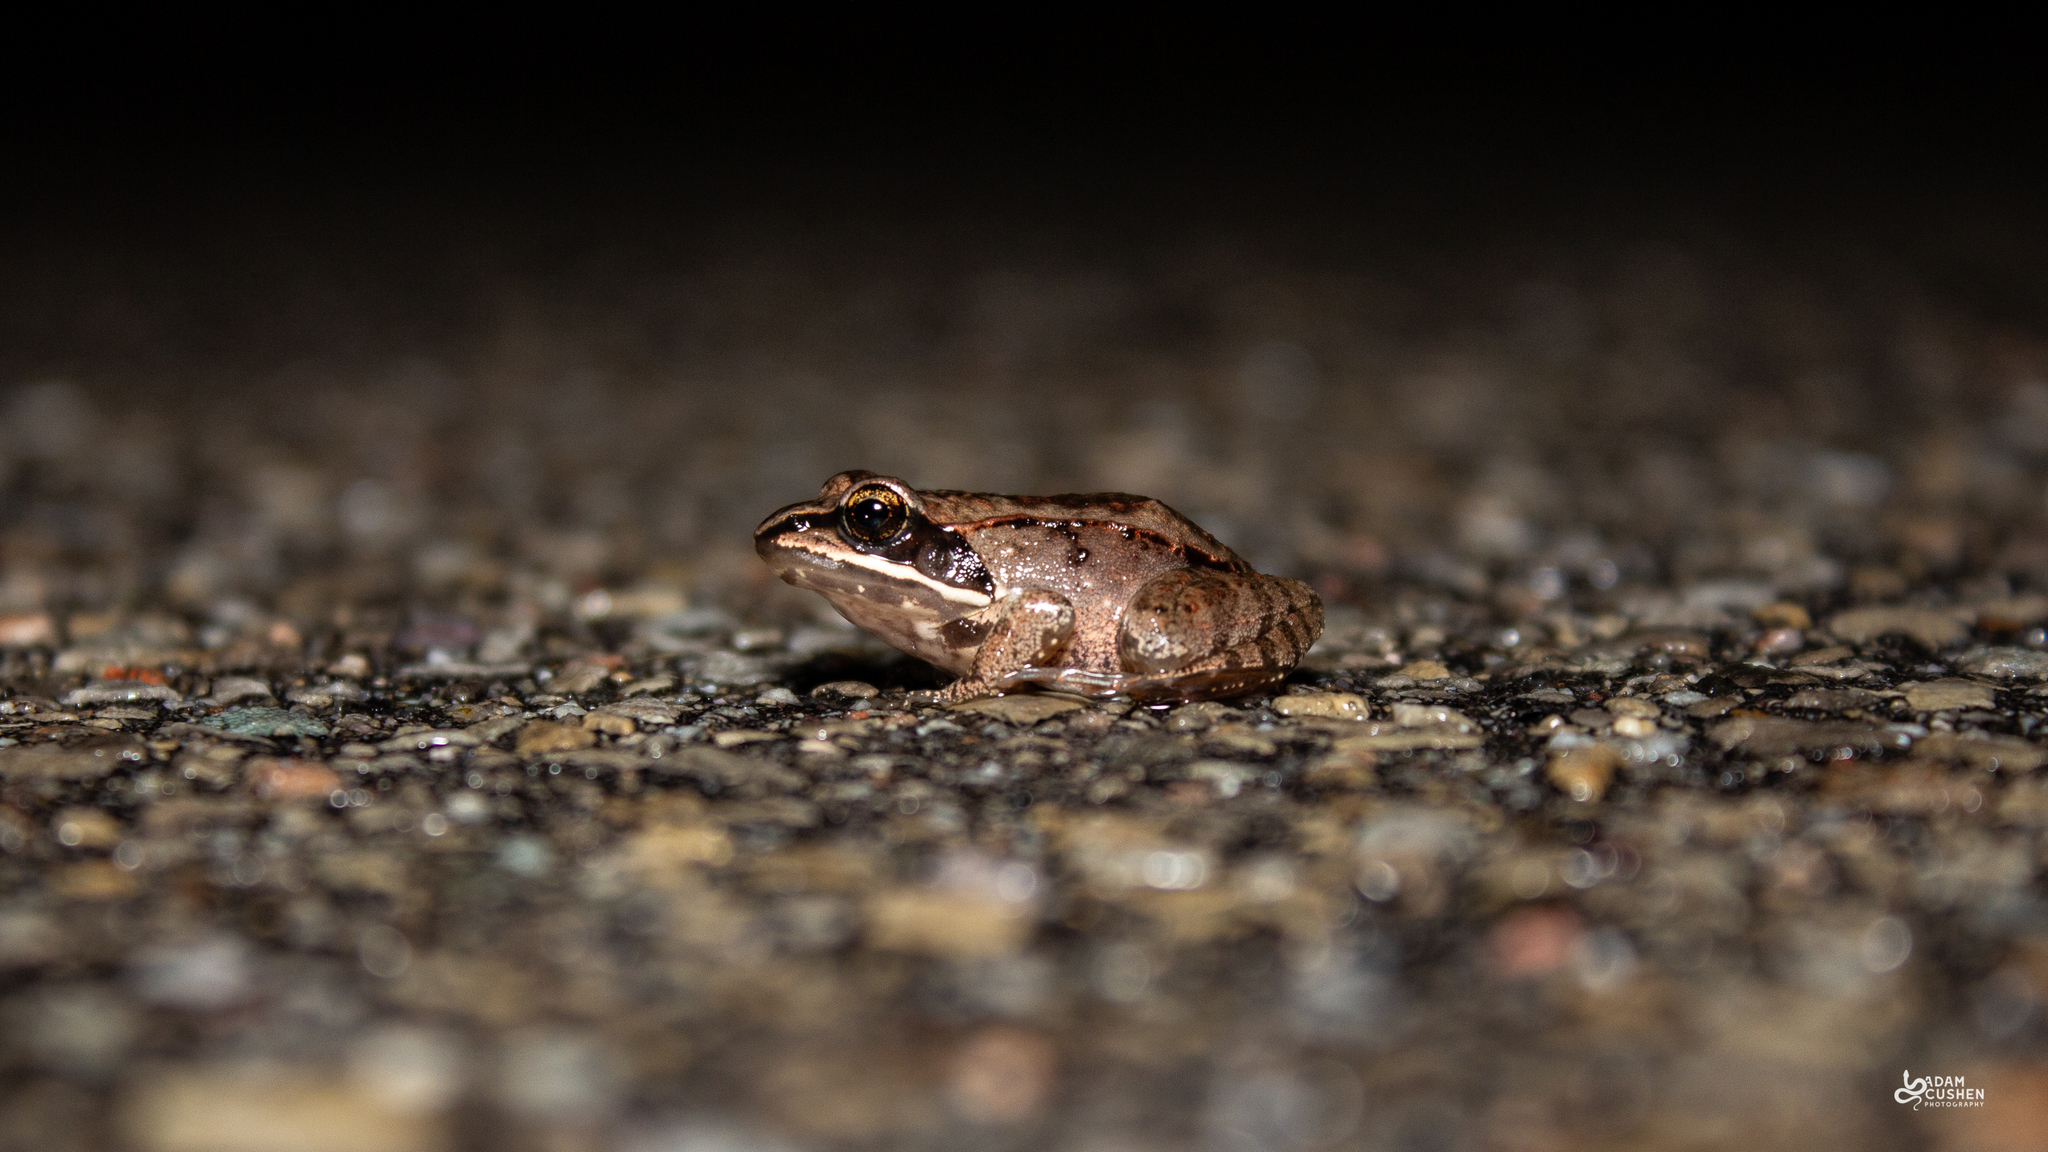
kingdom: Animalia
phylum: Chordata
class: Amphibia
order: Anura
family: Ranidae
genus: Lithobates
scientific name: Lithobates sylvaticus
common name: Wood frog
